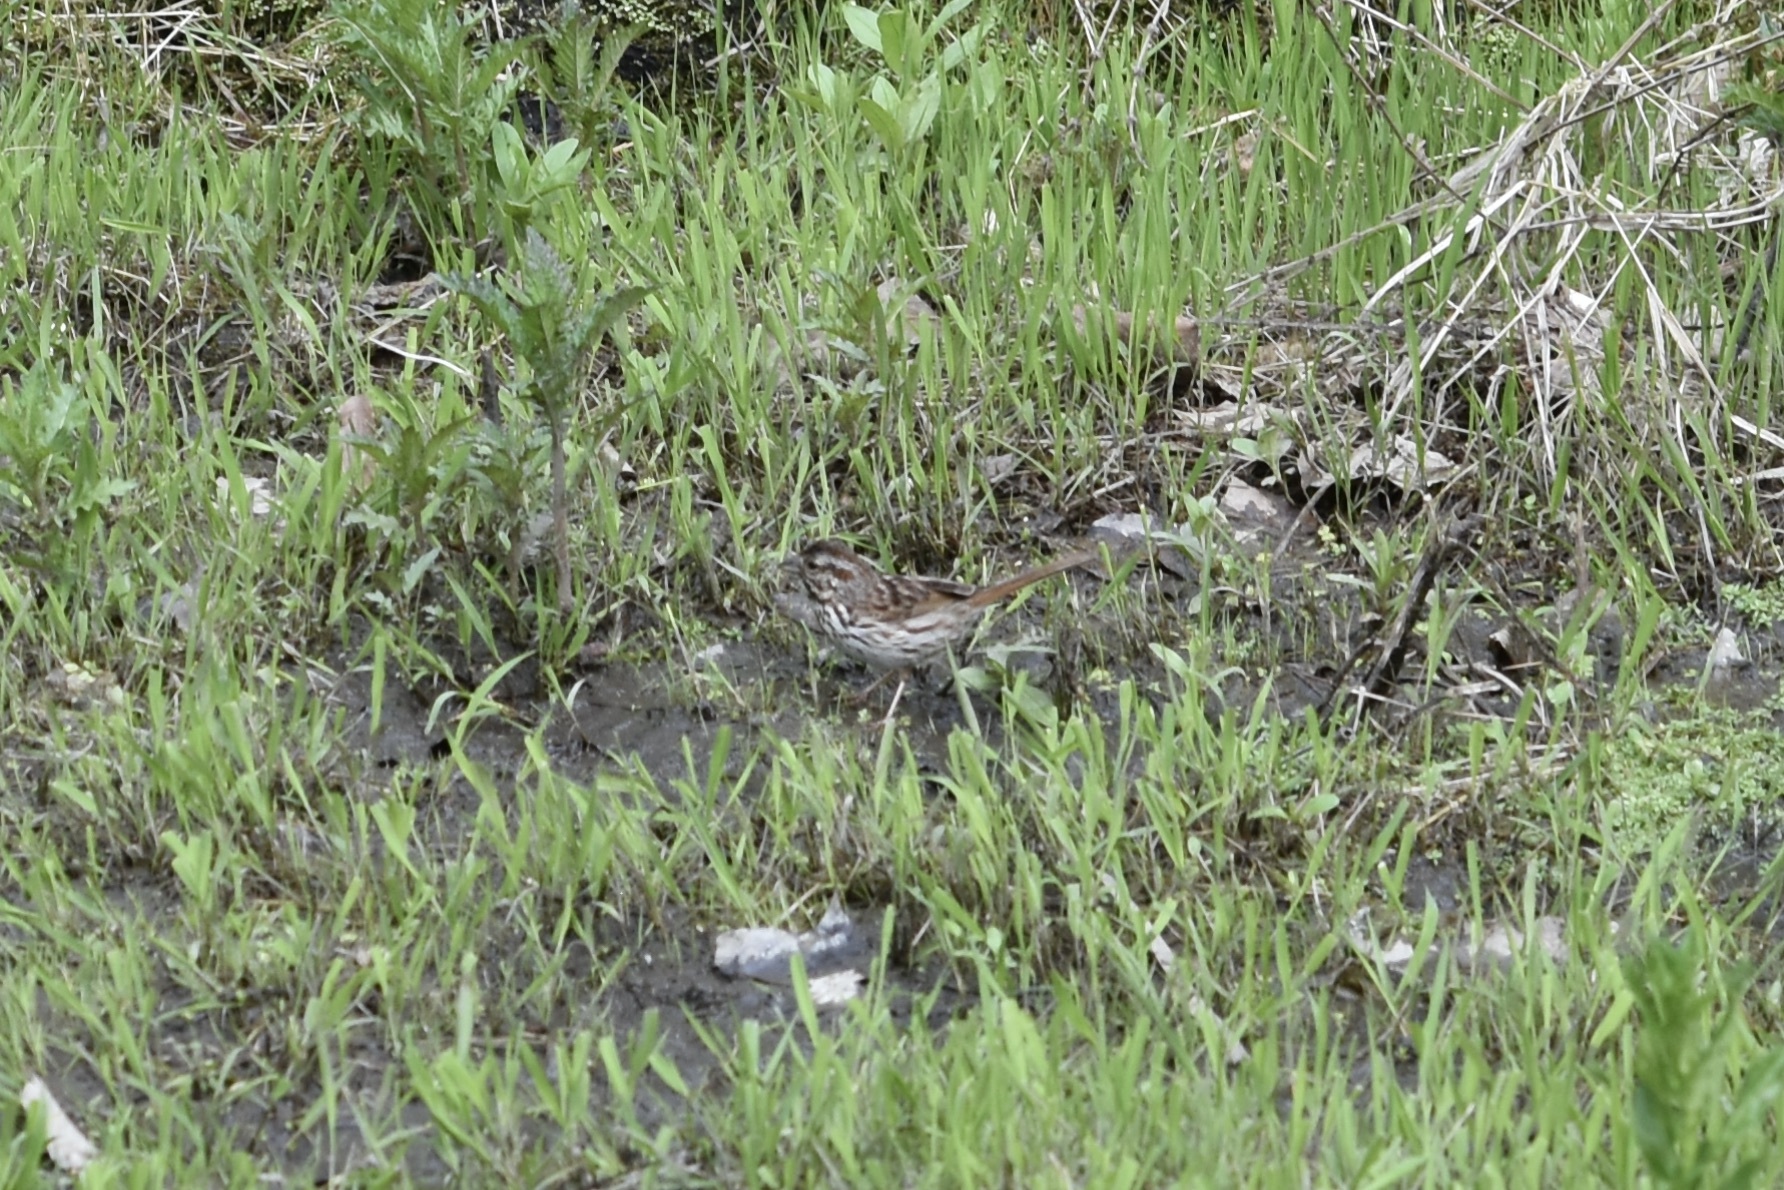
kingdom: Animalia
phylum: Chordata
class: Aves
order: Passeriformes
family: Passerellidae
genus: Melospiza
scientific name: Melospiza melodia
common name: Song sparrow
